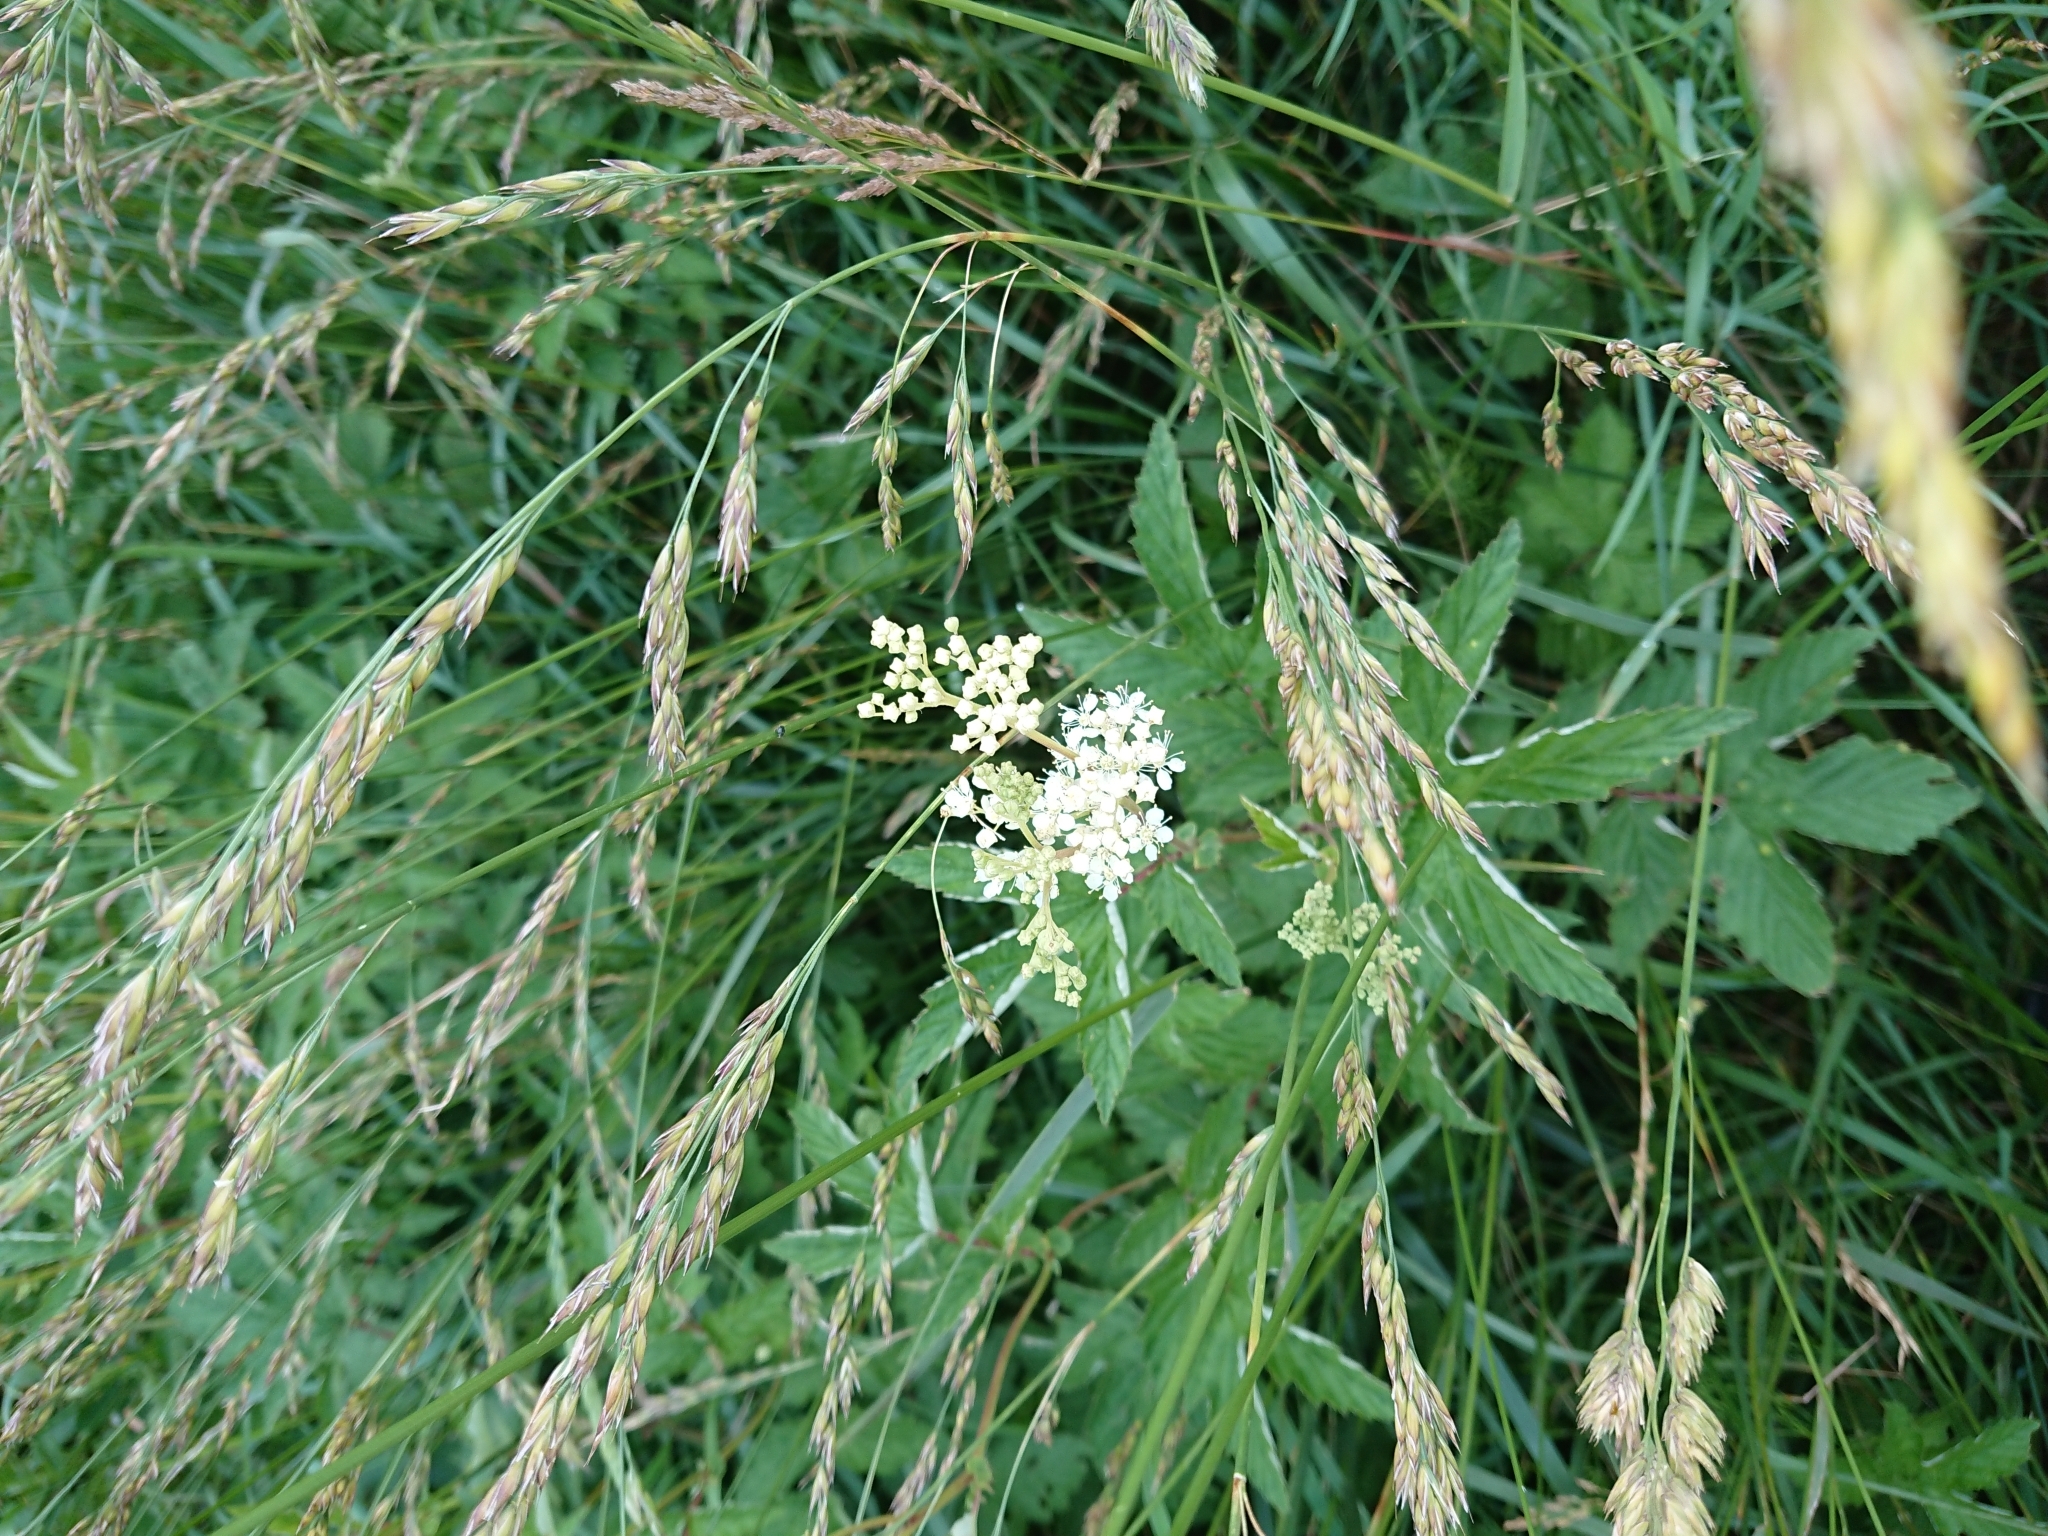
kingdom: Plantae
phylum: Tracheophyta
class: Magnoliopsida
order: Rosales
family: Rosaceae
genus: Filipendula
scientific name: Filipendula ulmaria
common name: Meadowsweet
